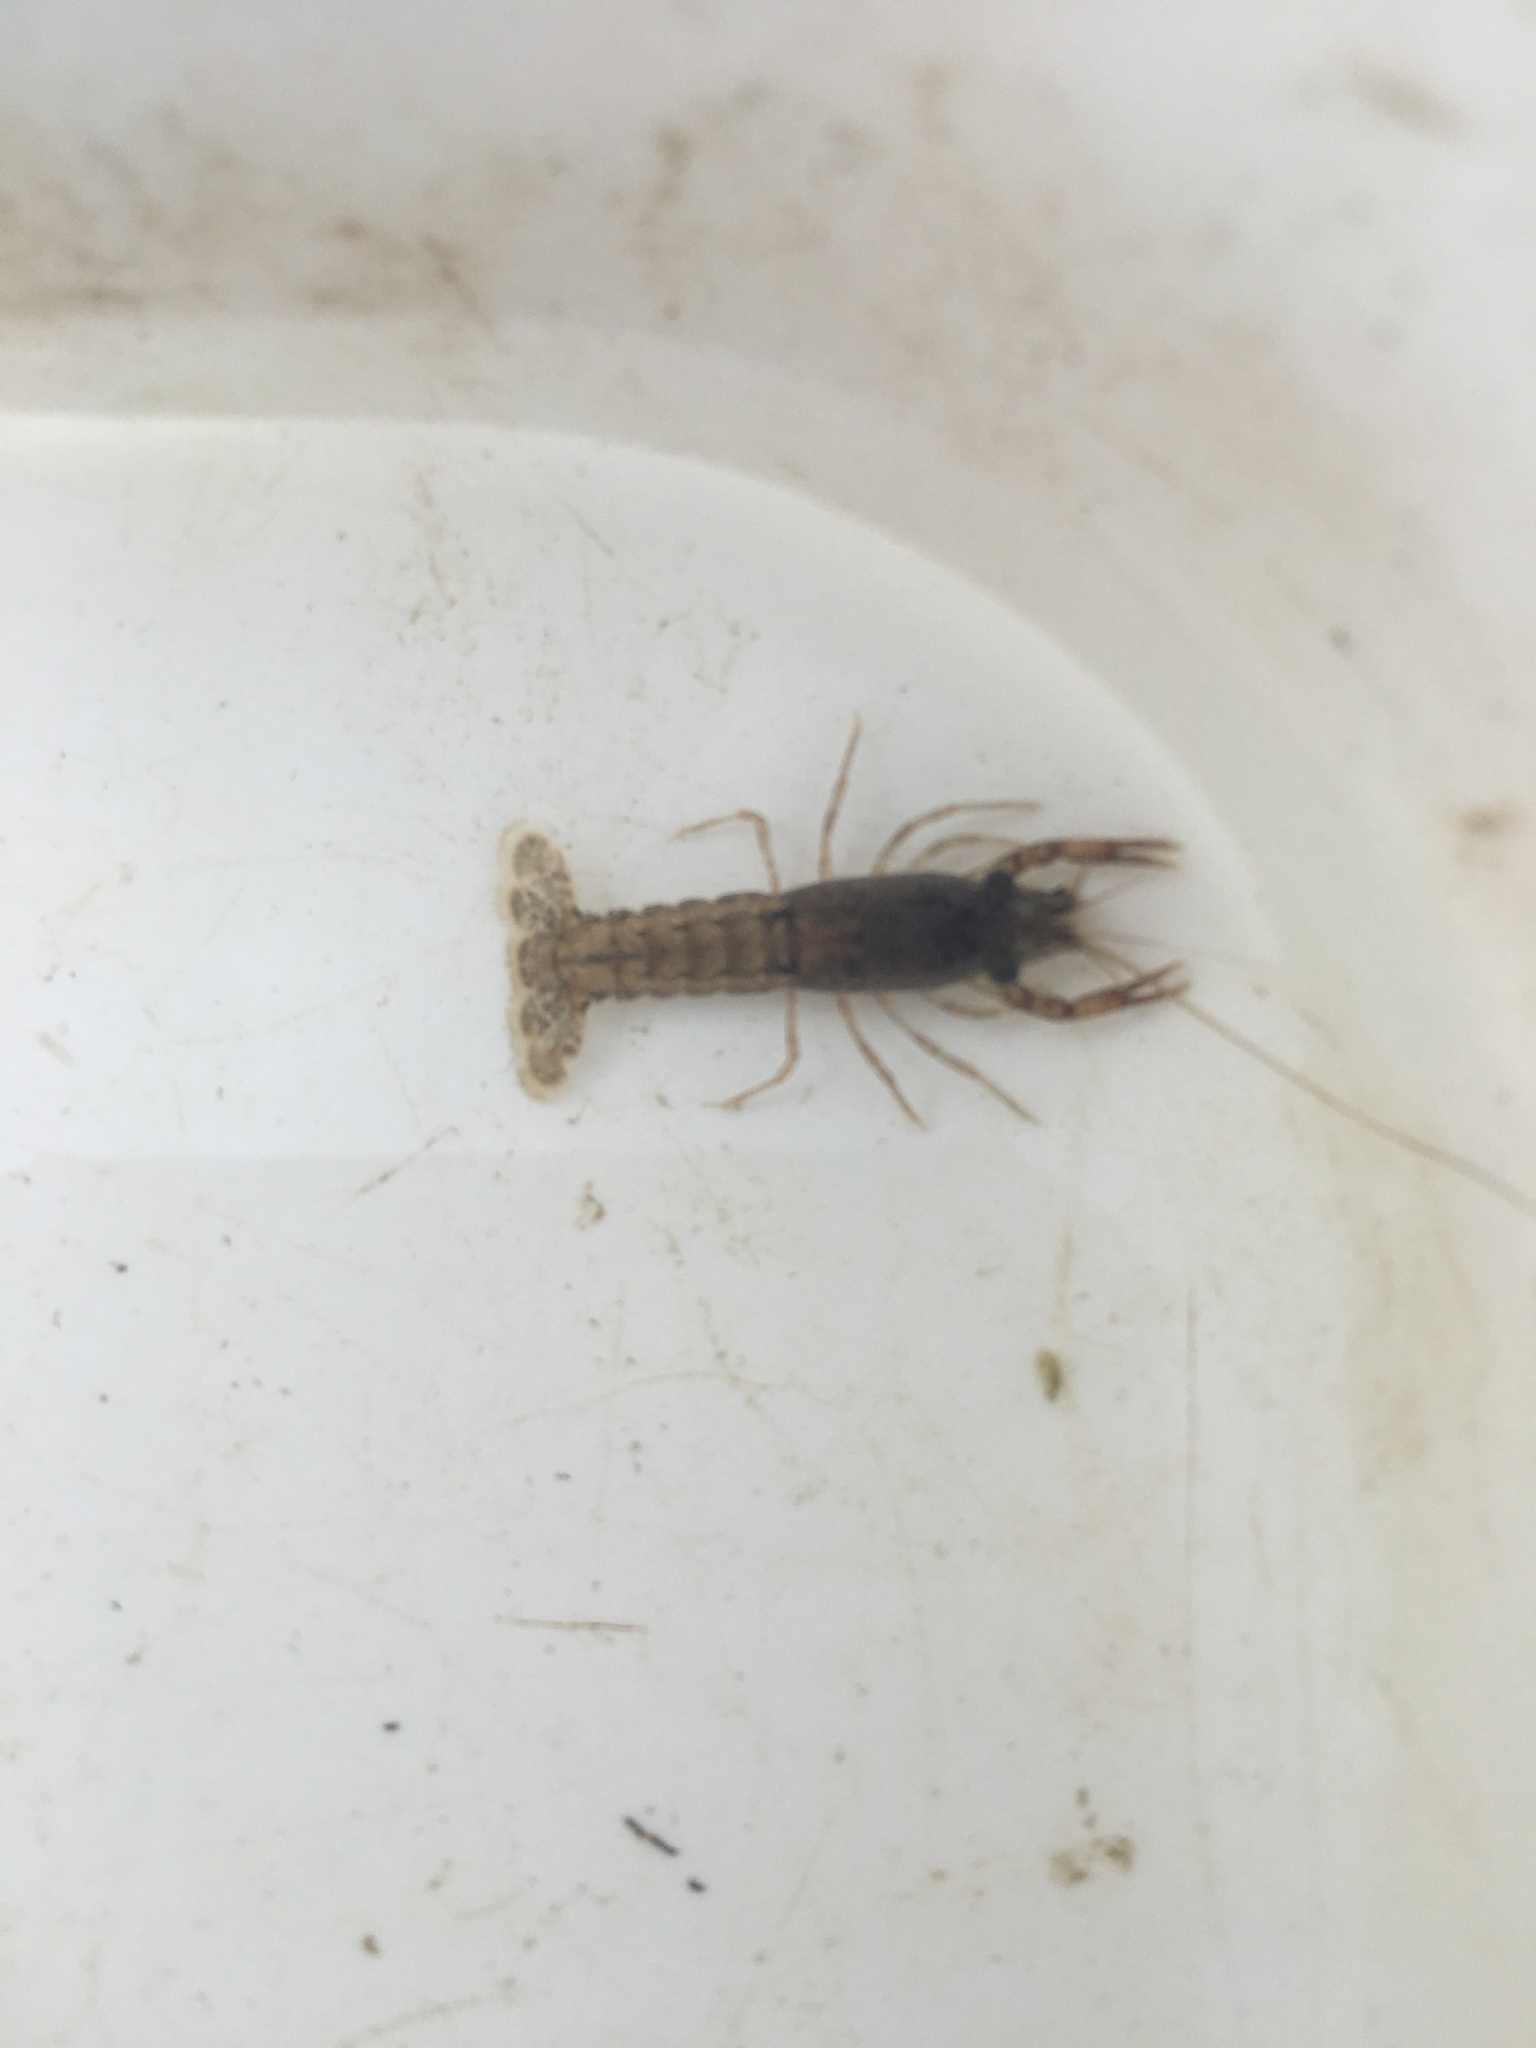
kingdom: Animalia
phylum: Arthropoda
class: Malacostraca
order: Decapoda
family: Cambaridae
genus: Procambarus
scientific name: Procambarus clarkii
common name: Red swamp crayfish
